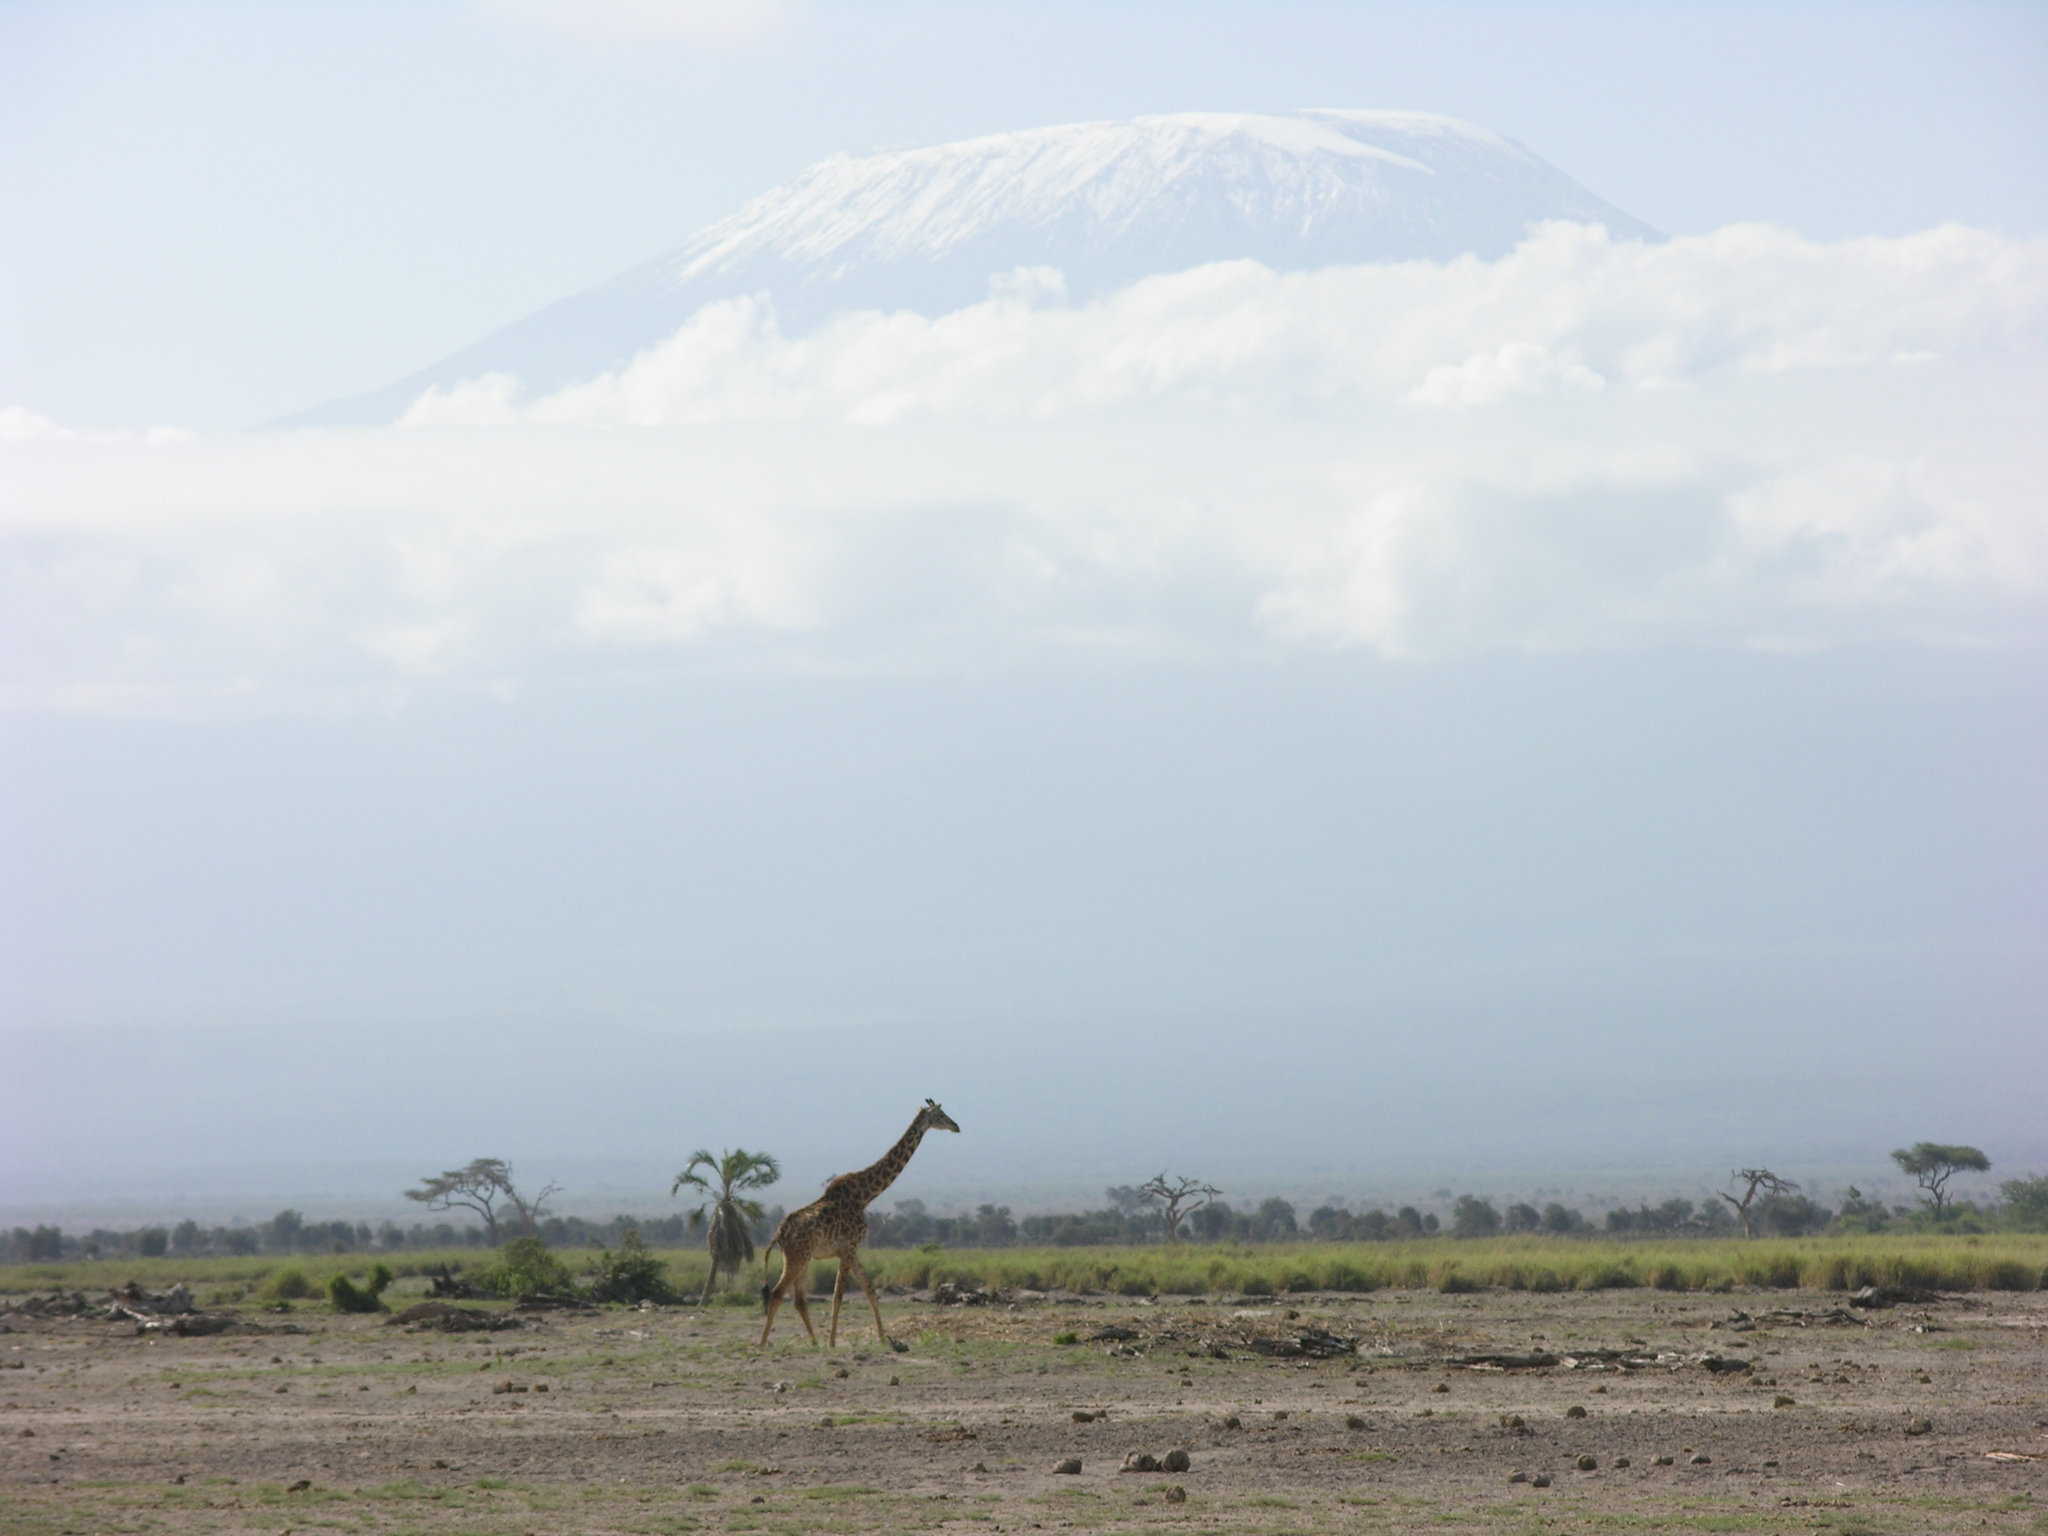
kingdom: Animalia
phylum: Chordata
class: Mammalia
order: Artiodactyla
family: Giraffidae
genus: Giraffa
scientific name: Giraffa tippelskirchi
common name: Masai giraffe
